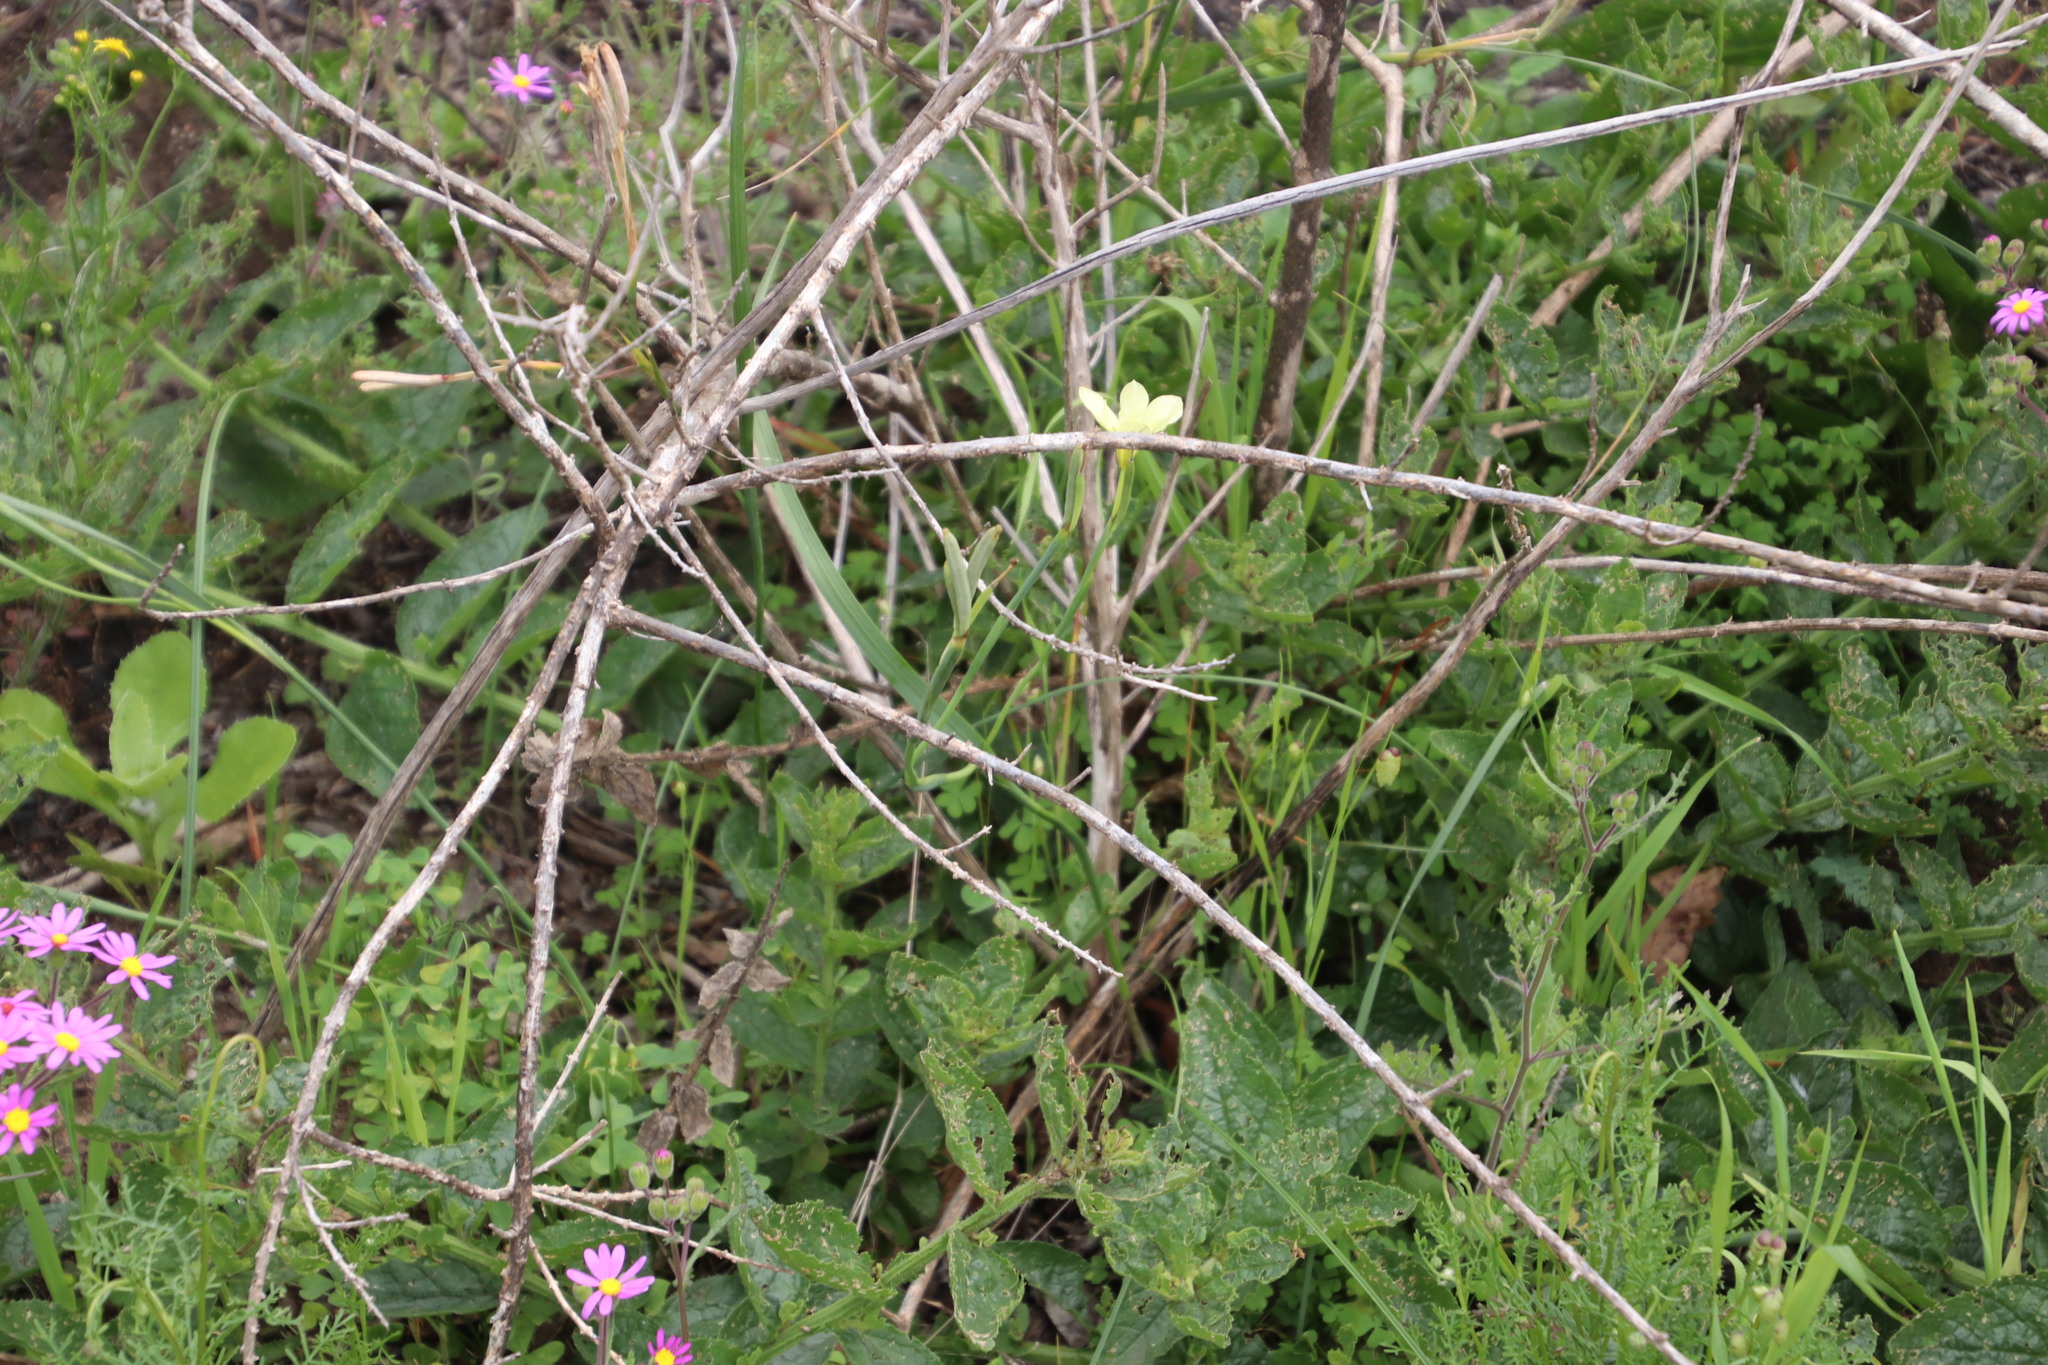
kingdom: Plantae
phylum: Tracheophyta
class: Liliopsida
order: Asparagales
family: Iridaceae
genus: Moraea
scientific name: Moraea collina
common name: Cape-tulip
